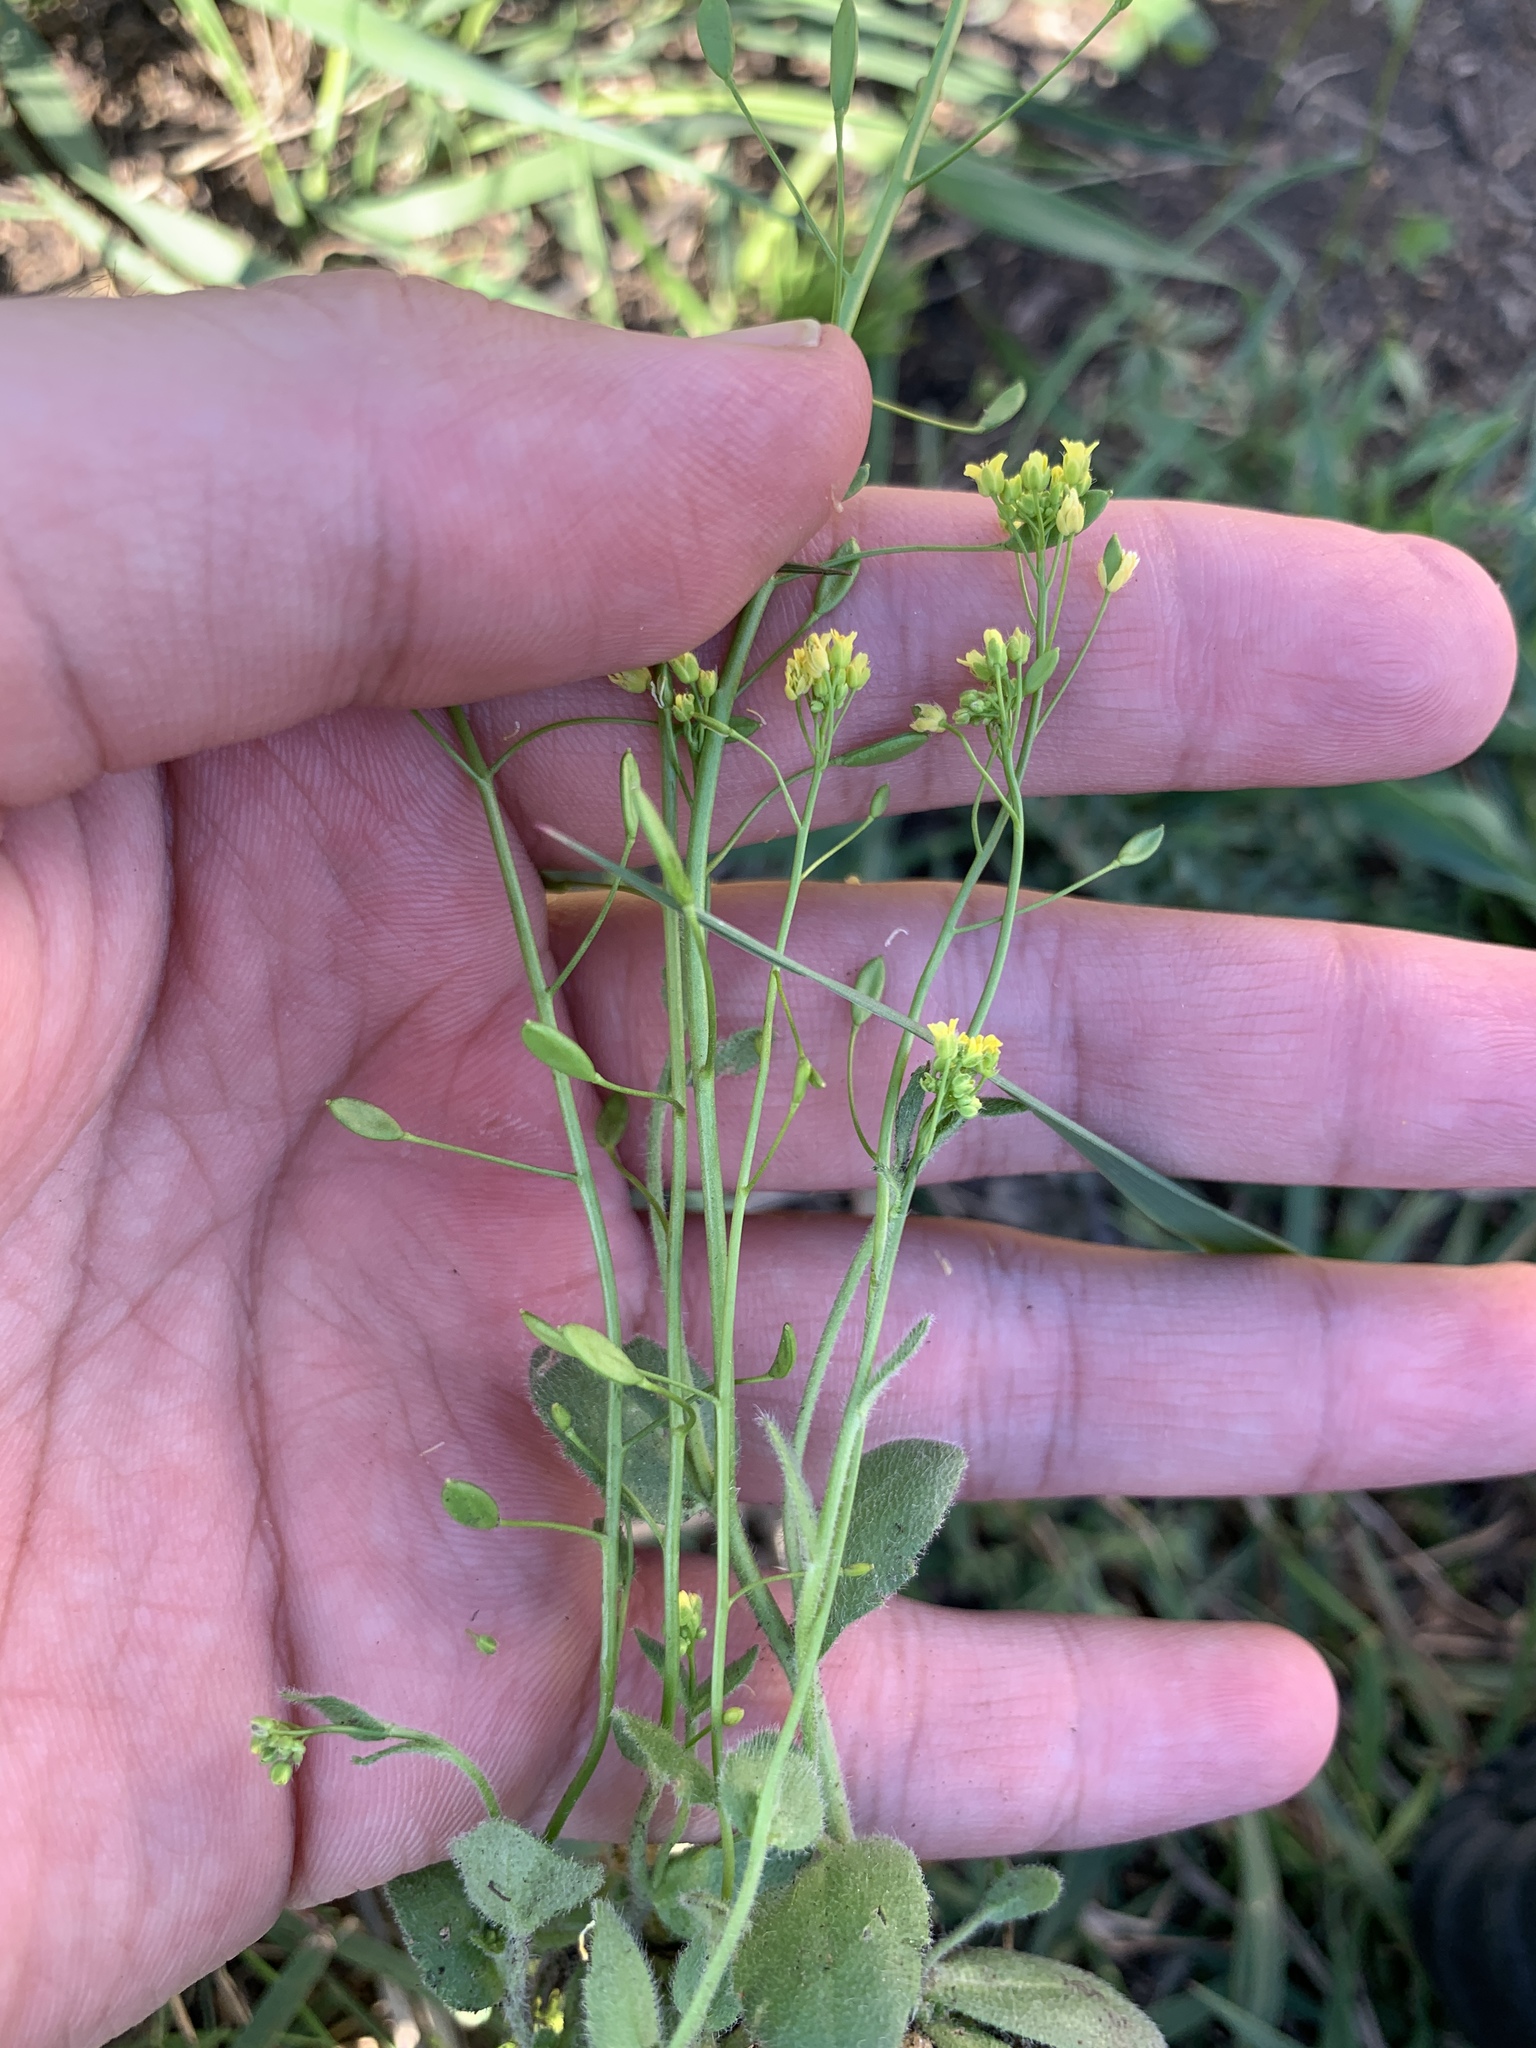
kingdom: Plantae
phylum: Tracheophyta
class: Magnoliopsida
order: Brassicales
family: Brassicaceae
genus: Draba
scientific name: Draba nemorosa
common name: Wood whitlow-grass
